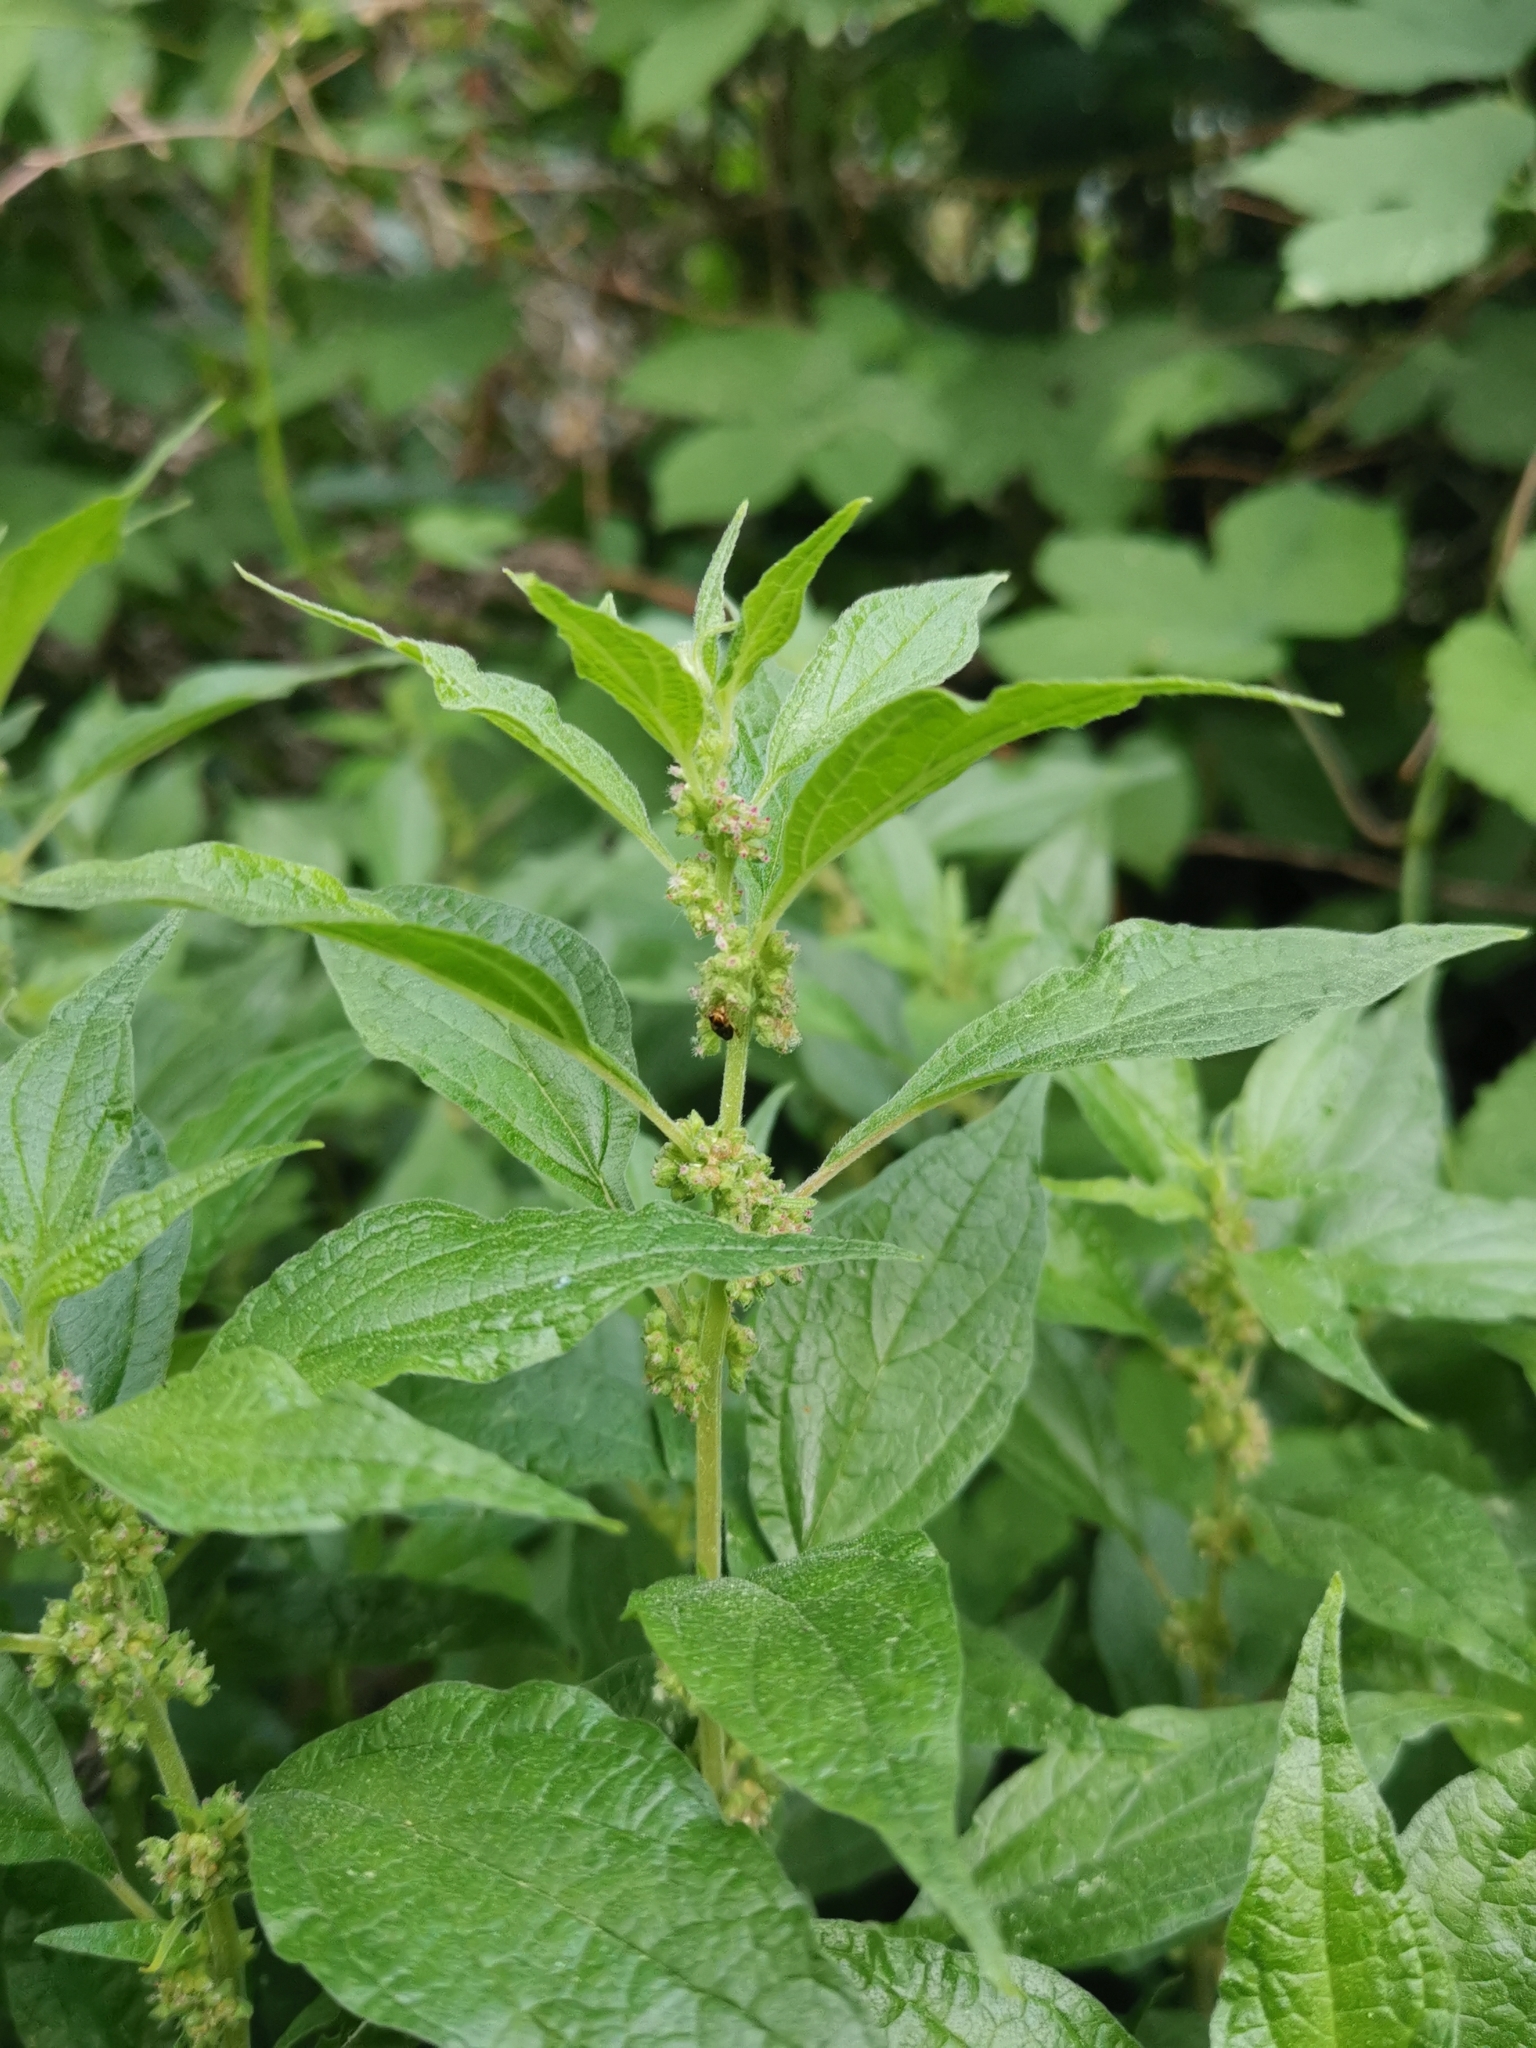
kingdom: Plantae
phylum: Tracheophyta
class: Magnoliopsida
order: Rosales
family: Urticaceae
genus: Parietaria
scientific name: Parietaria officinalis
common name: Eastern pellitory-of-the-wall
